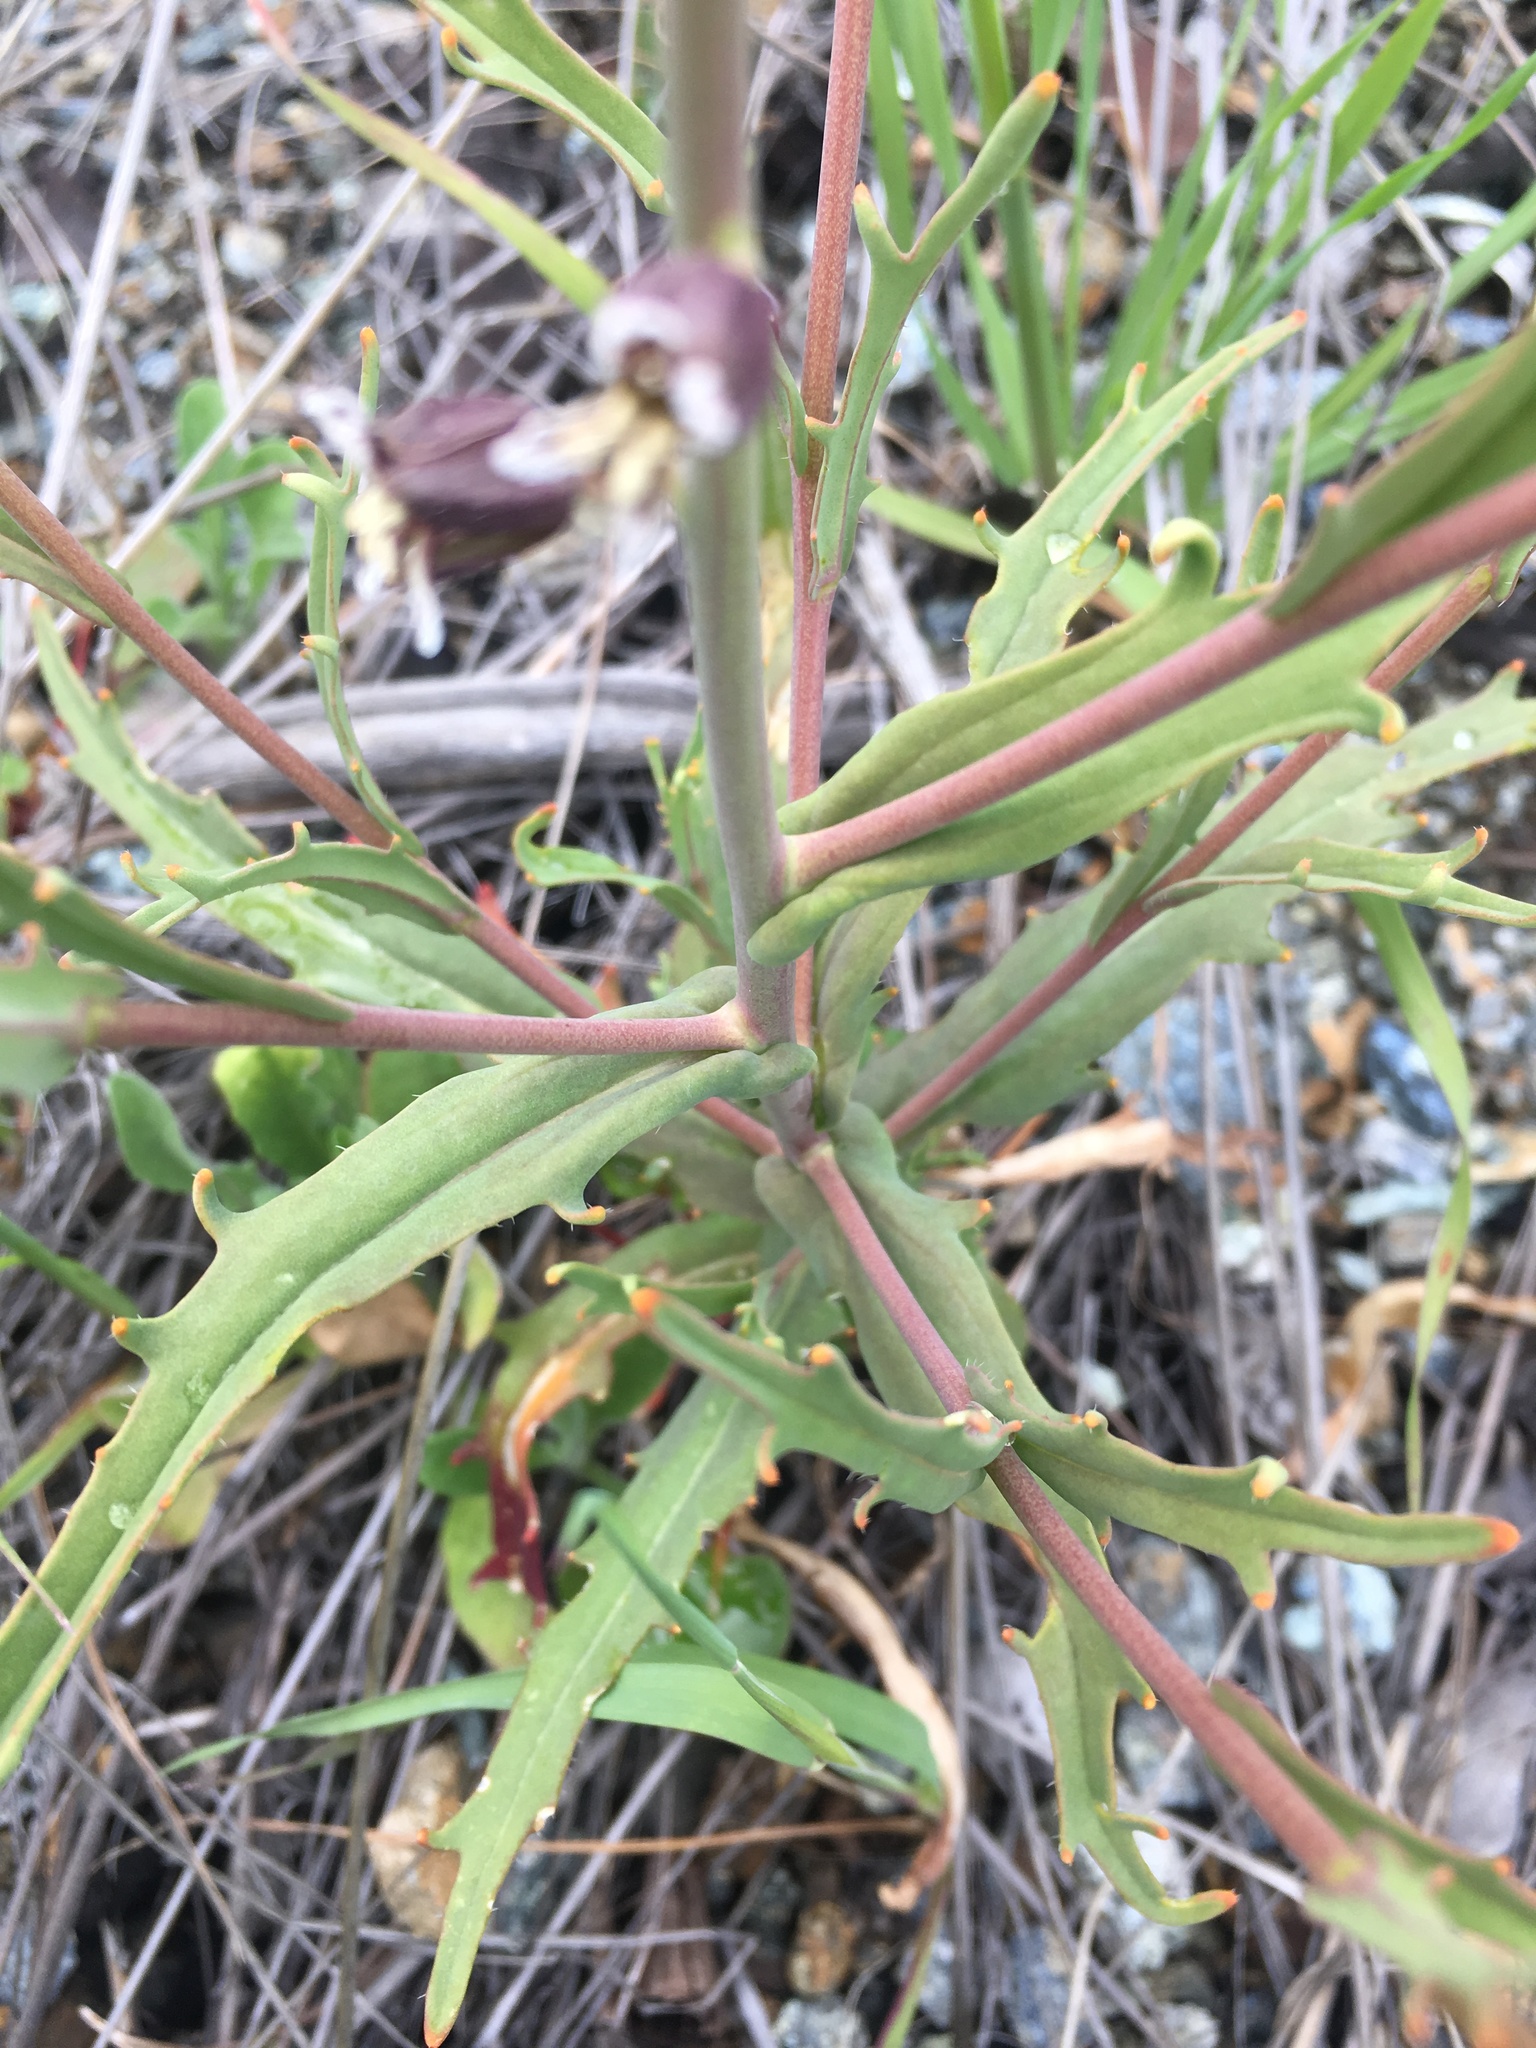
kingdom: Plantae
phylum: Tracheophyta
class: Magnoliopsida
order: Brassicales
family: Brassicaceae
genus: Streptanthus
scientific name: Streptanthus insignis
